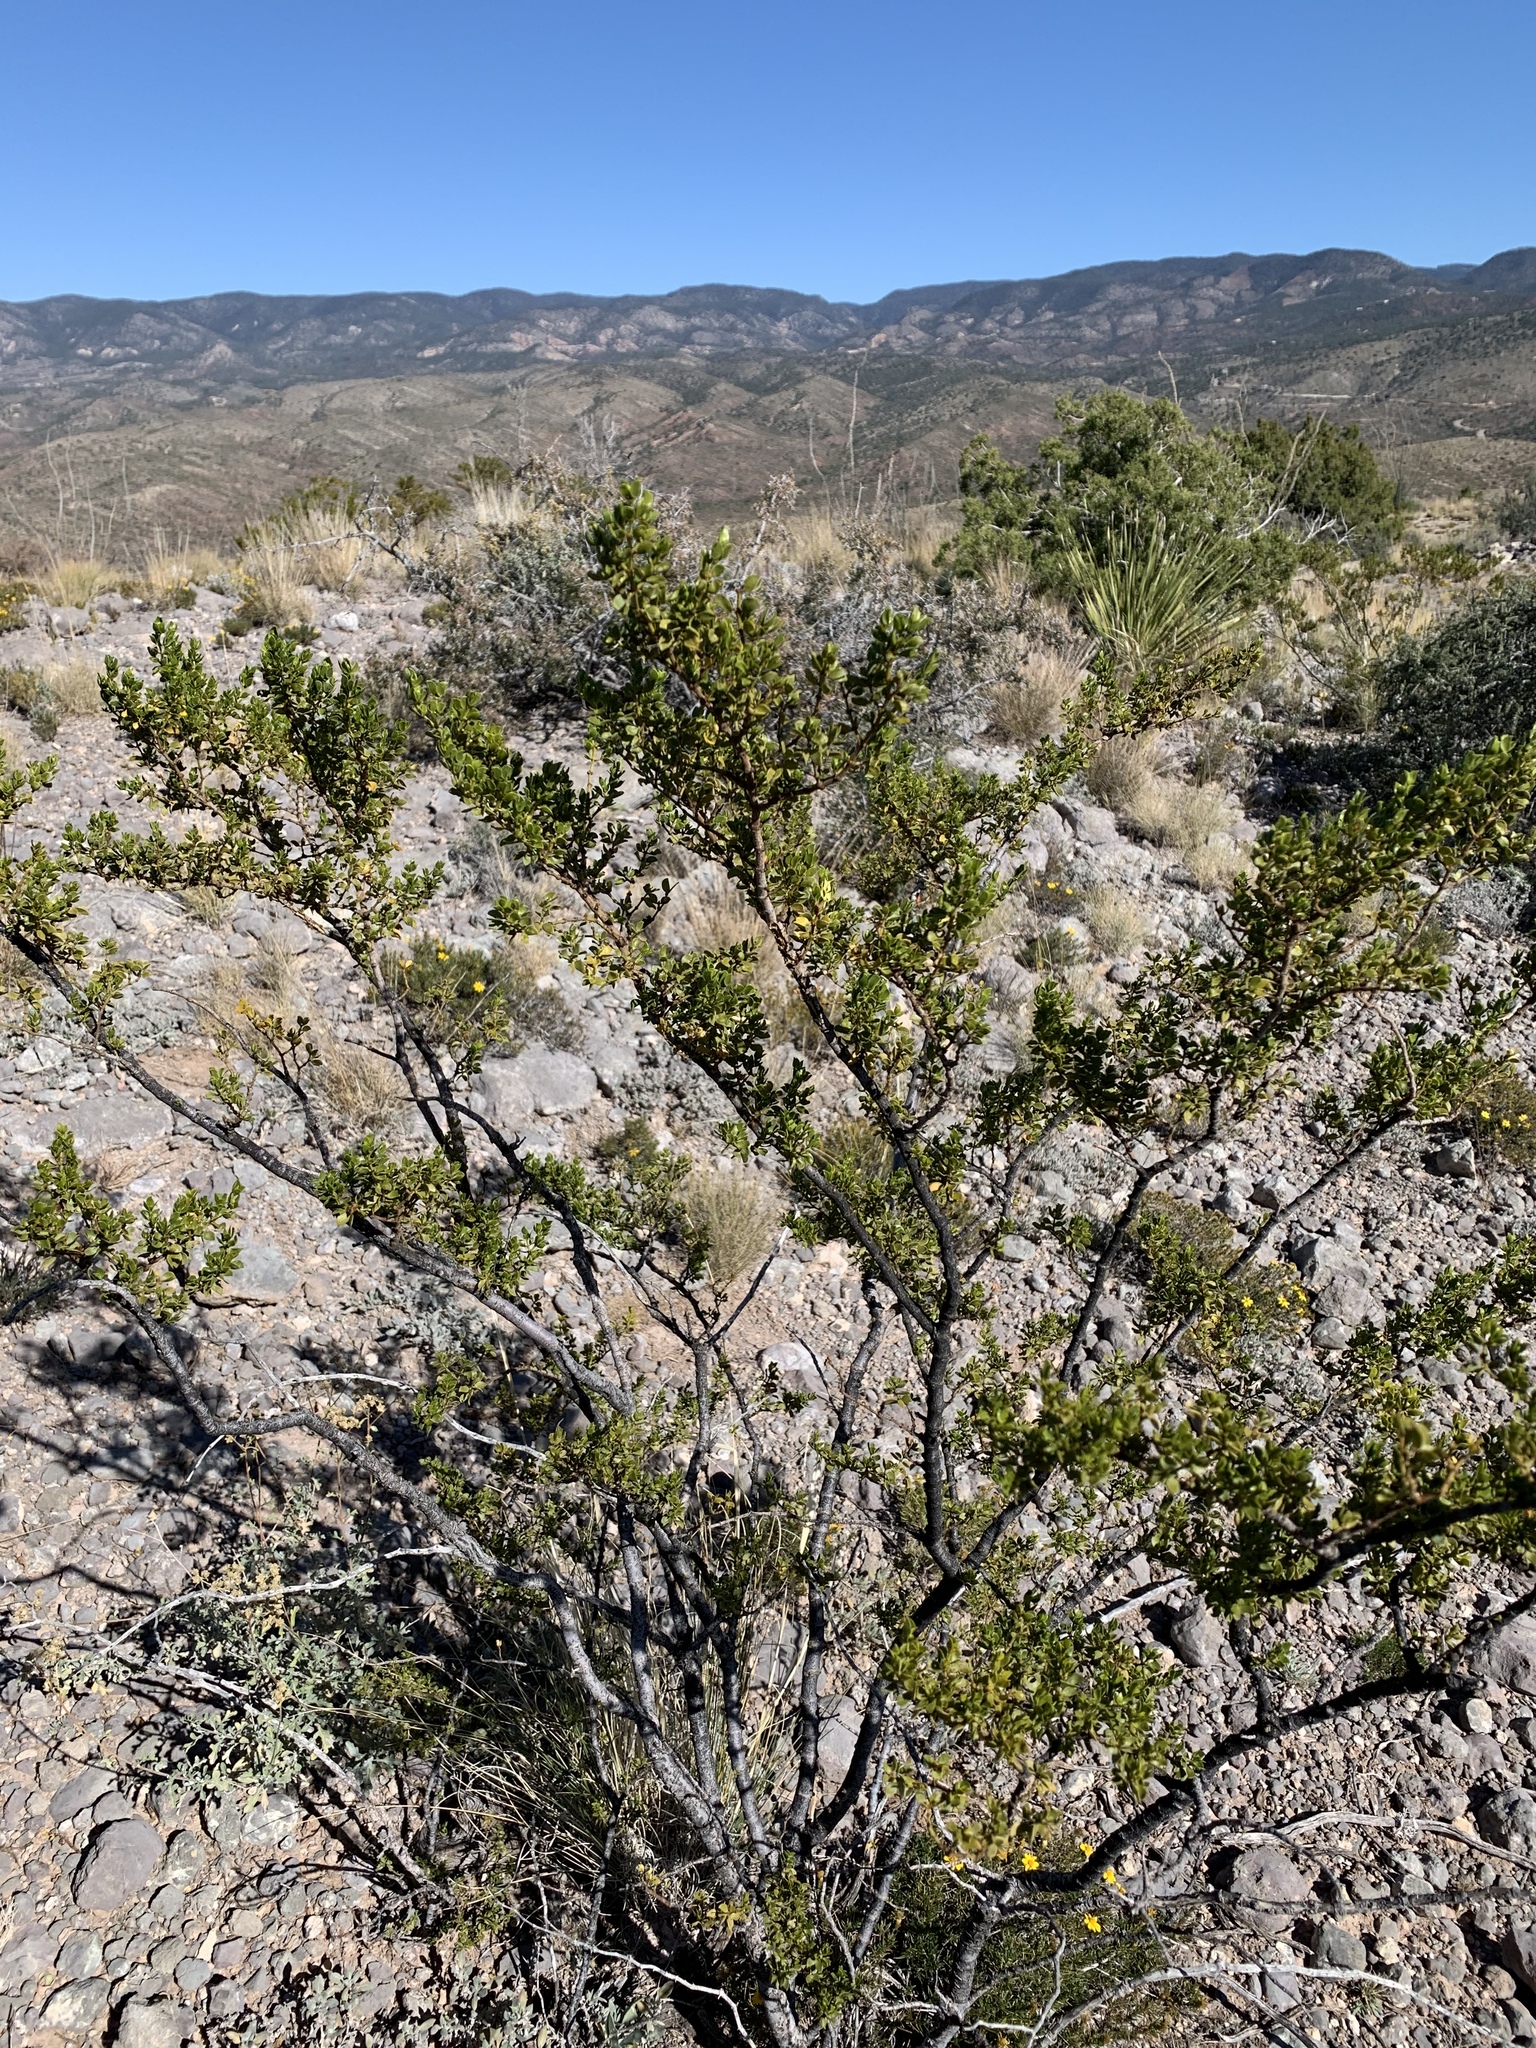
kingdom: Plantae
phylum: Tracheophyta
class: Magnoliopsida
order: Zygophyllales
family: Zygophyllaceae
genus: Larrea
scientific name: Larrea tridentata
